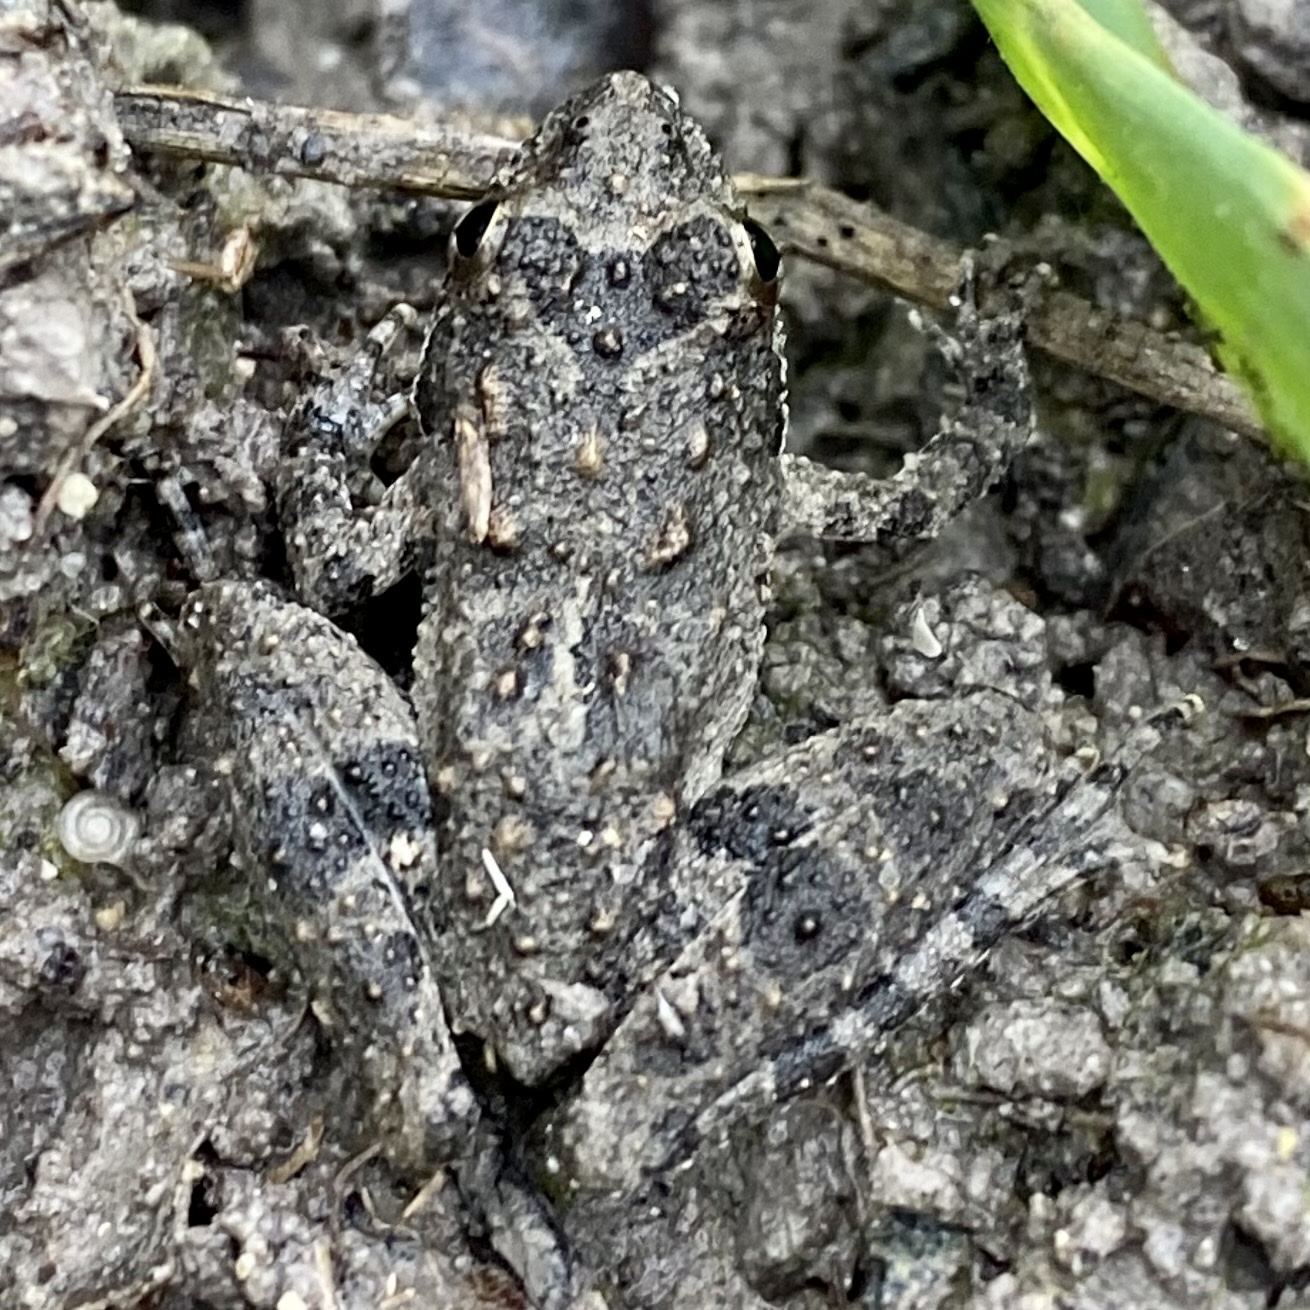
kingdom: Animalia
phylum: Chordata
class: Amphibia
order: Anura
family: Hylidae
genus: Acris
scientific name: Acris blanchardi
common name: Blanchard's cricket frog
